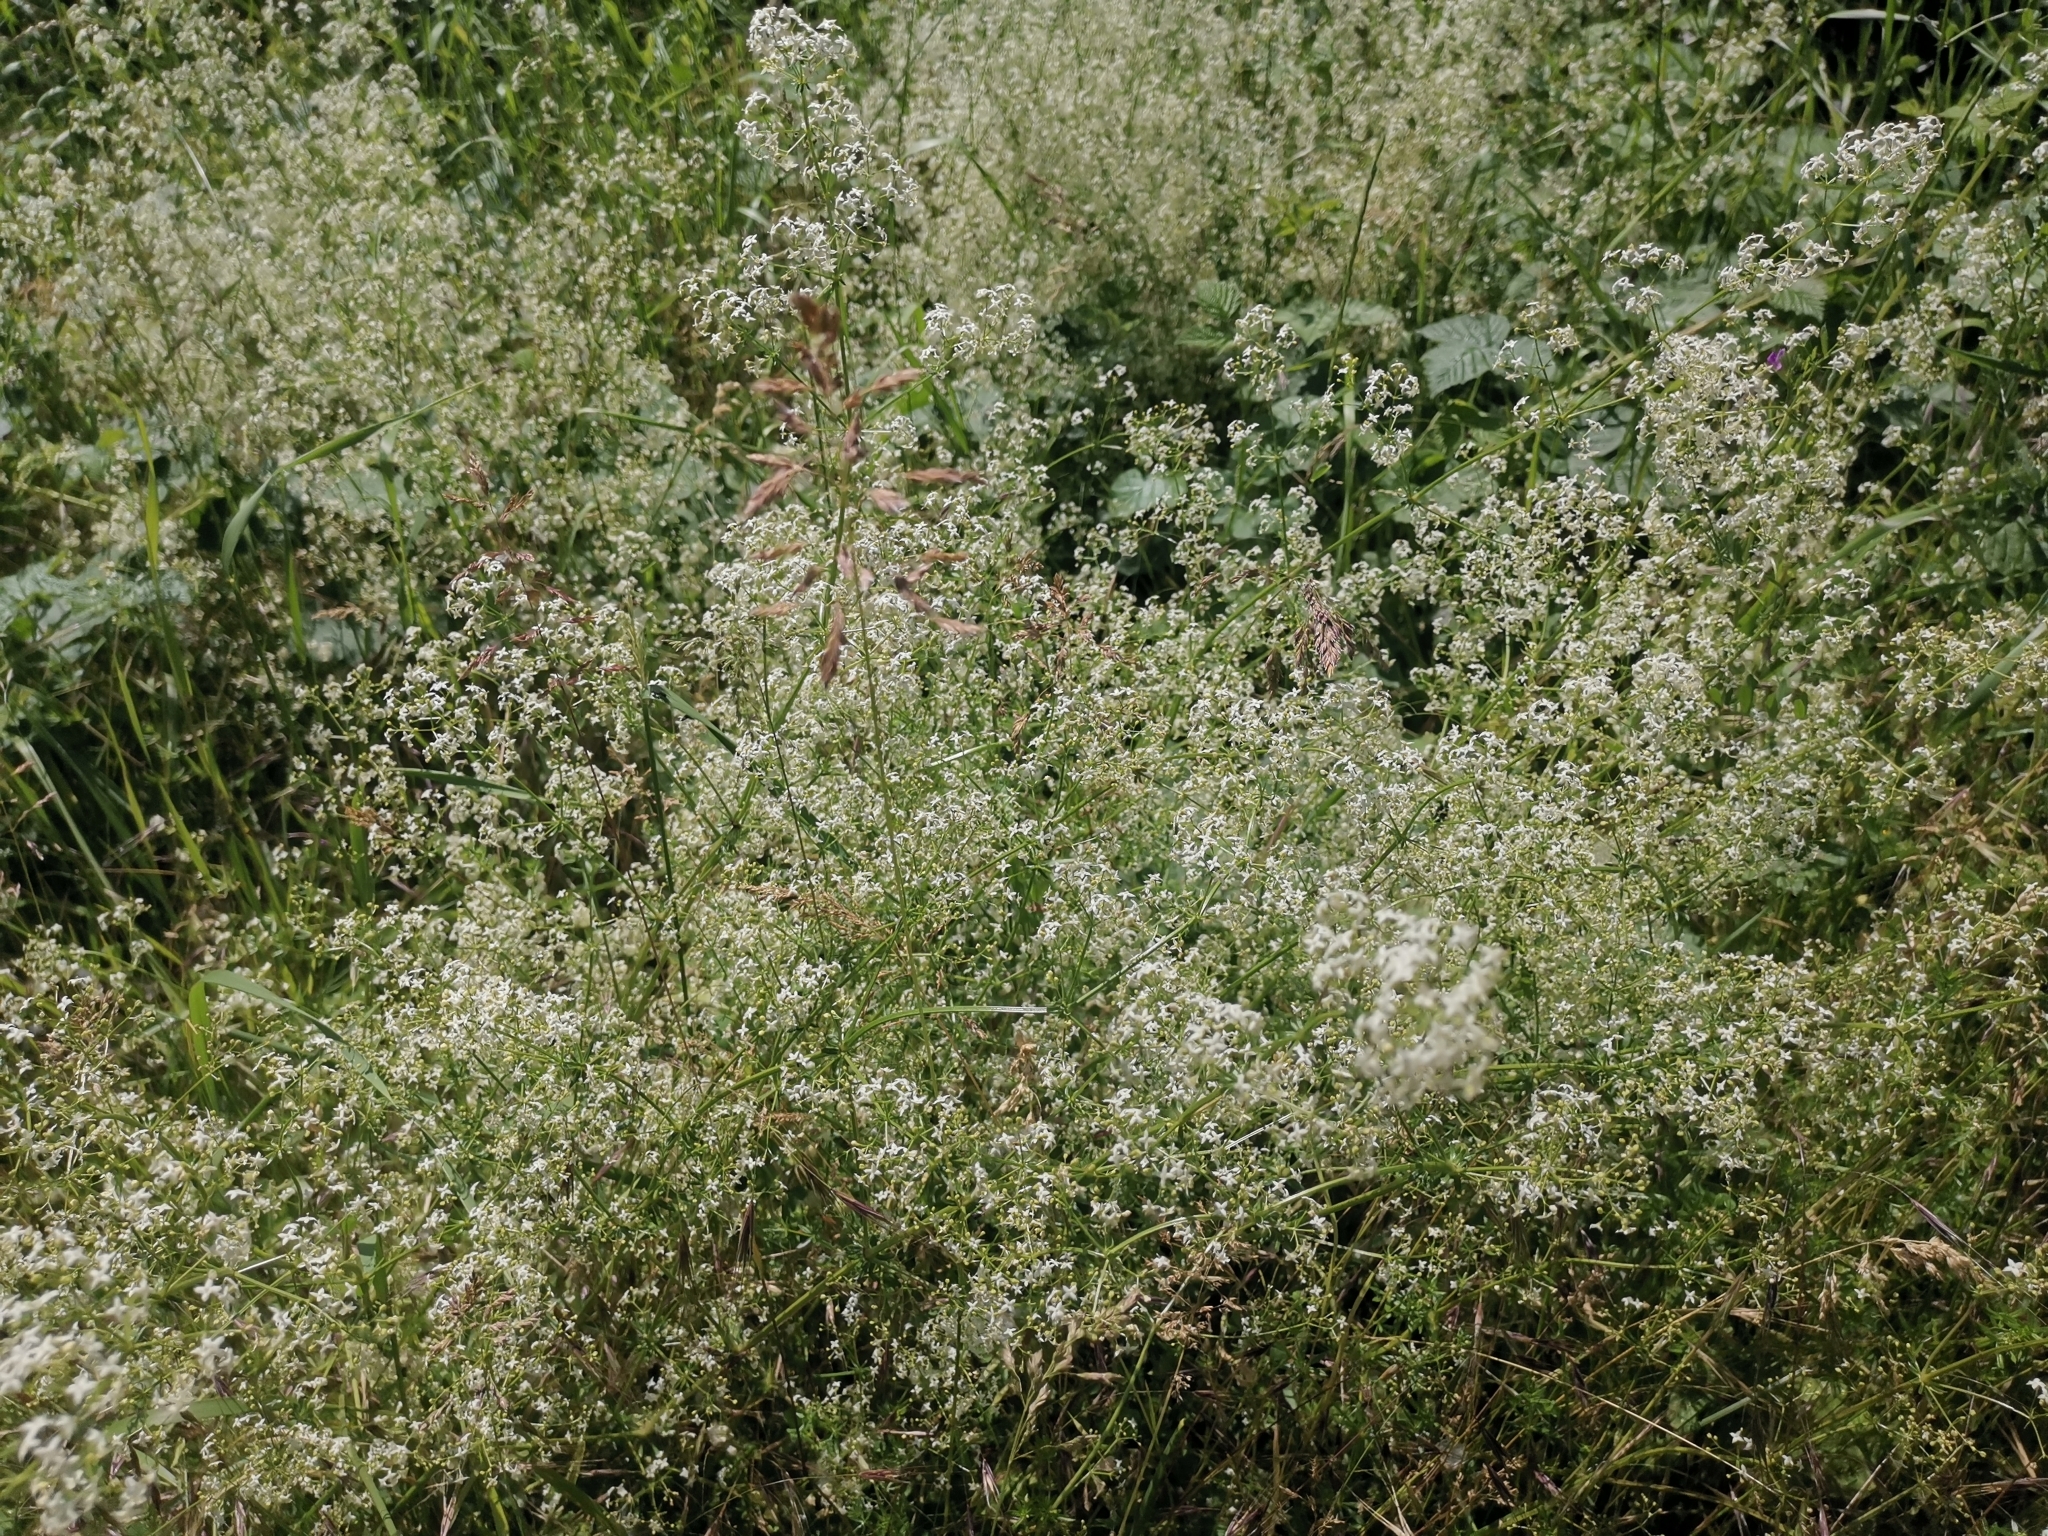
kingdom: Plantae
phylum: Tracheophyta
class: Magnoliopsida
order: Gentianales
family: Rubiaceae
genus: Galium
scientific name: Galium album
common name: White bedstraw
